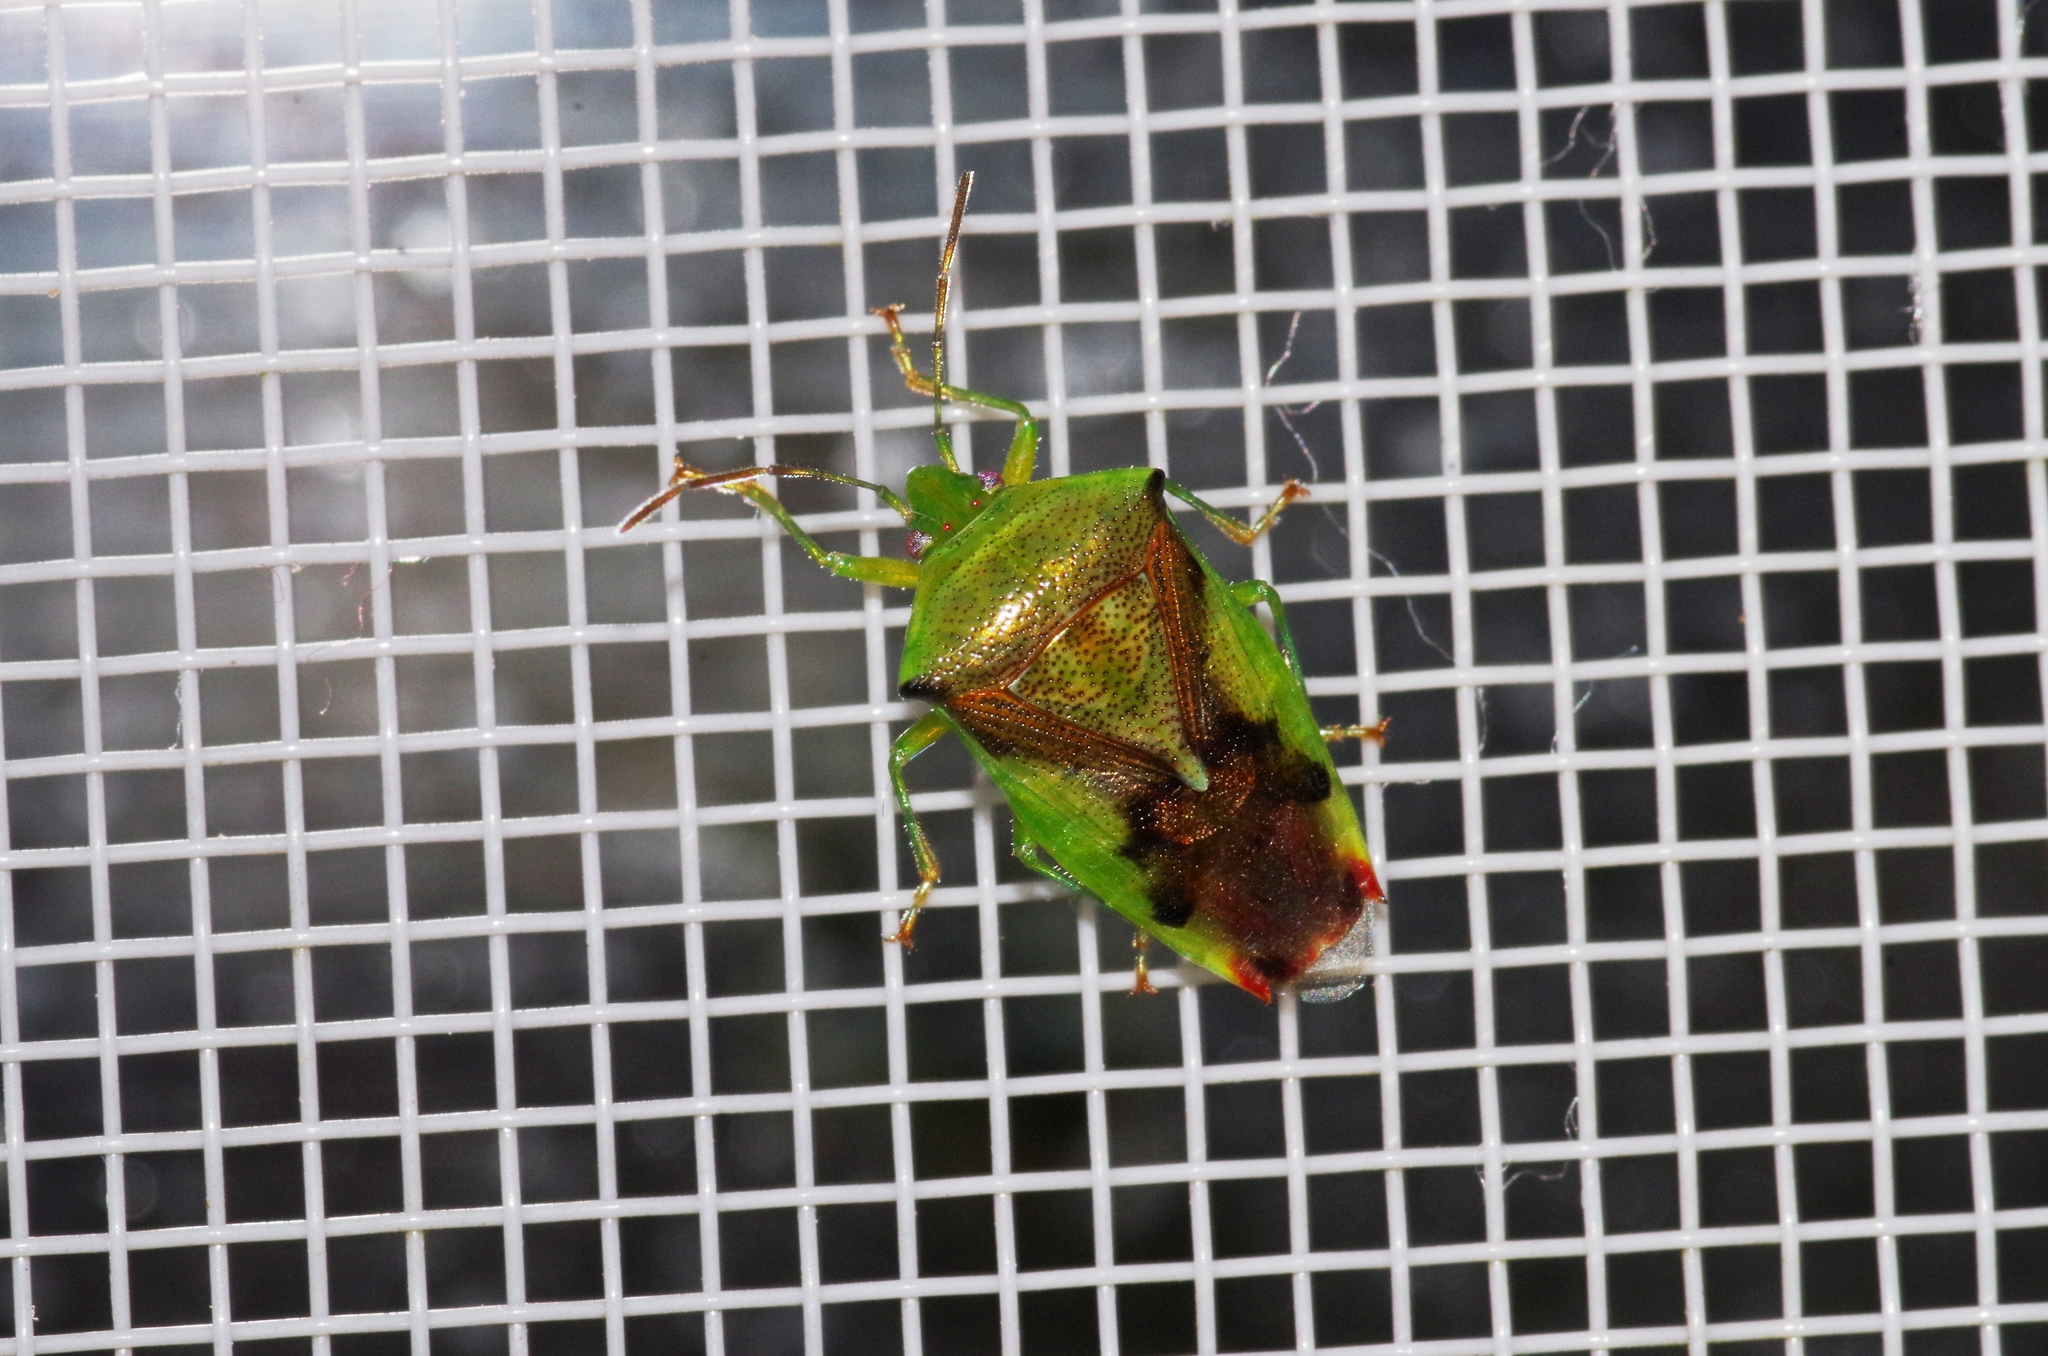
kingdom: Animalia
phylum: Arthropoda
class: Insecta
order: Hemiptera
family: Acanthosomatidae
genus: Elasmostethus
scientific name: Elasmostethus nubilus
